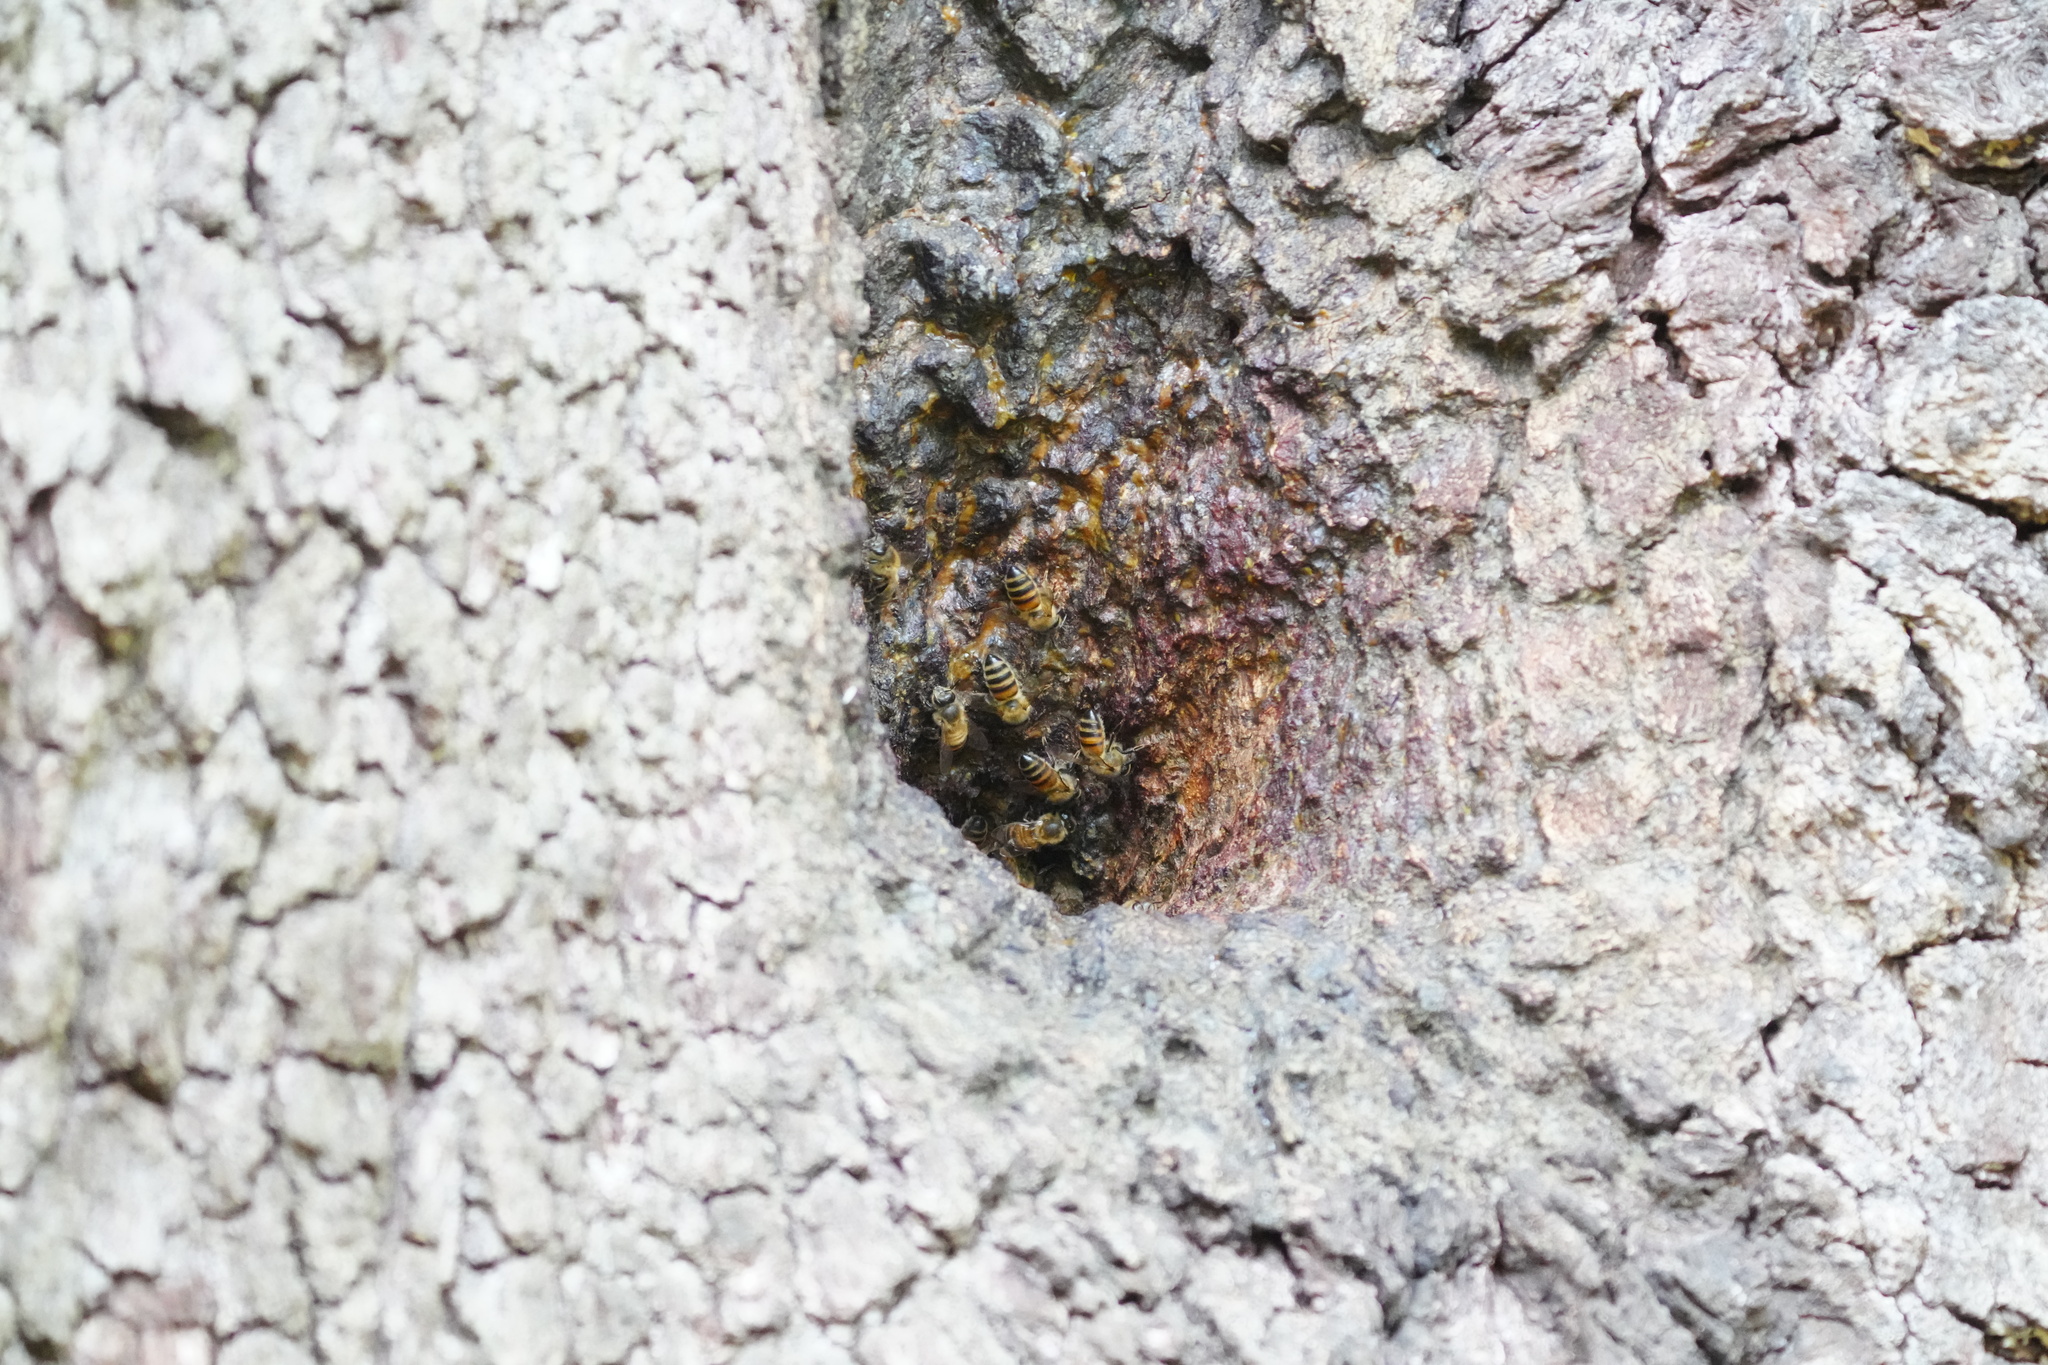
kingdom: Animalia
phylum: Arthropoda
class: Insecta
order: Hymenoptera
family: Apidae
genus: Apis
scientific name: Apis mellifera
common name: Honey bee
